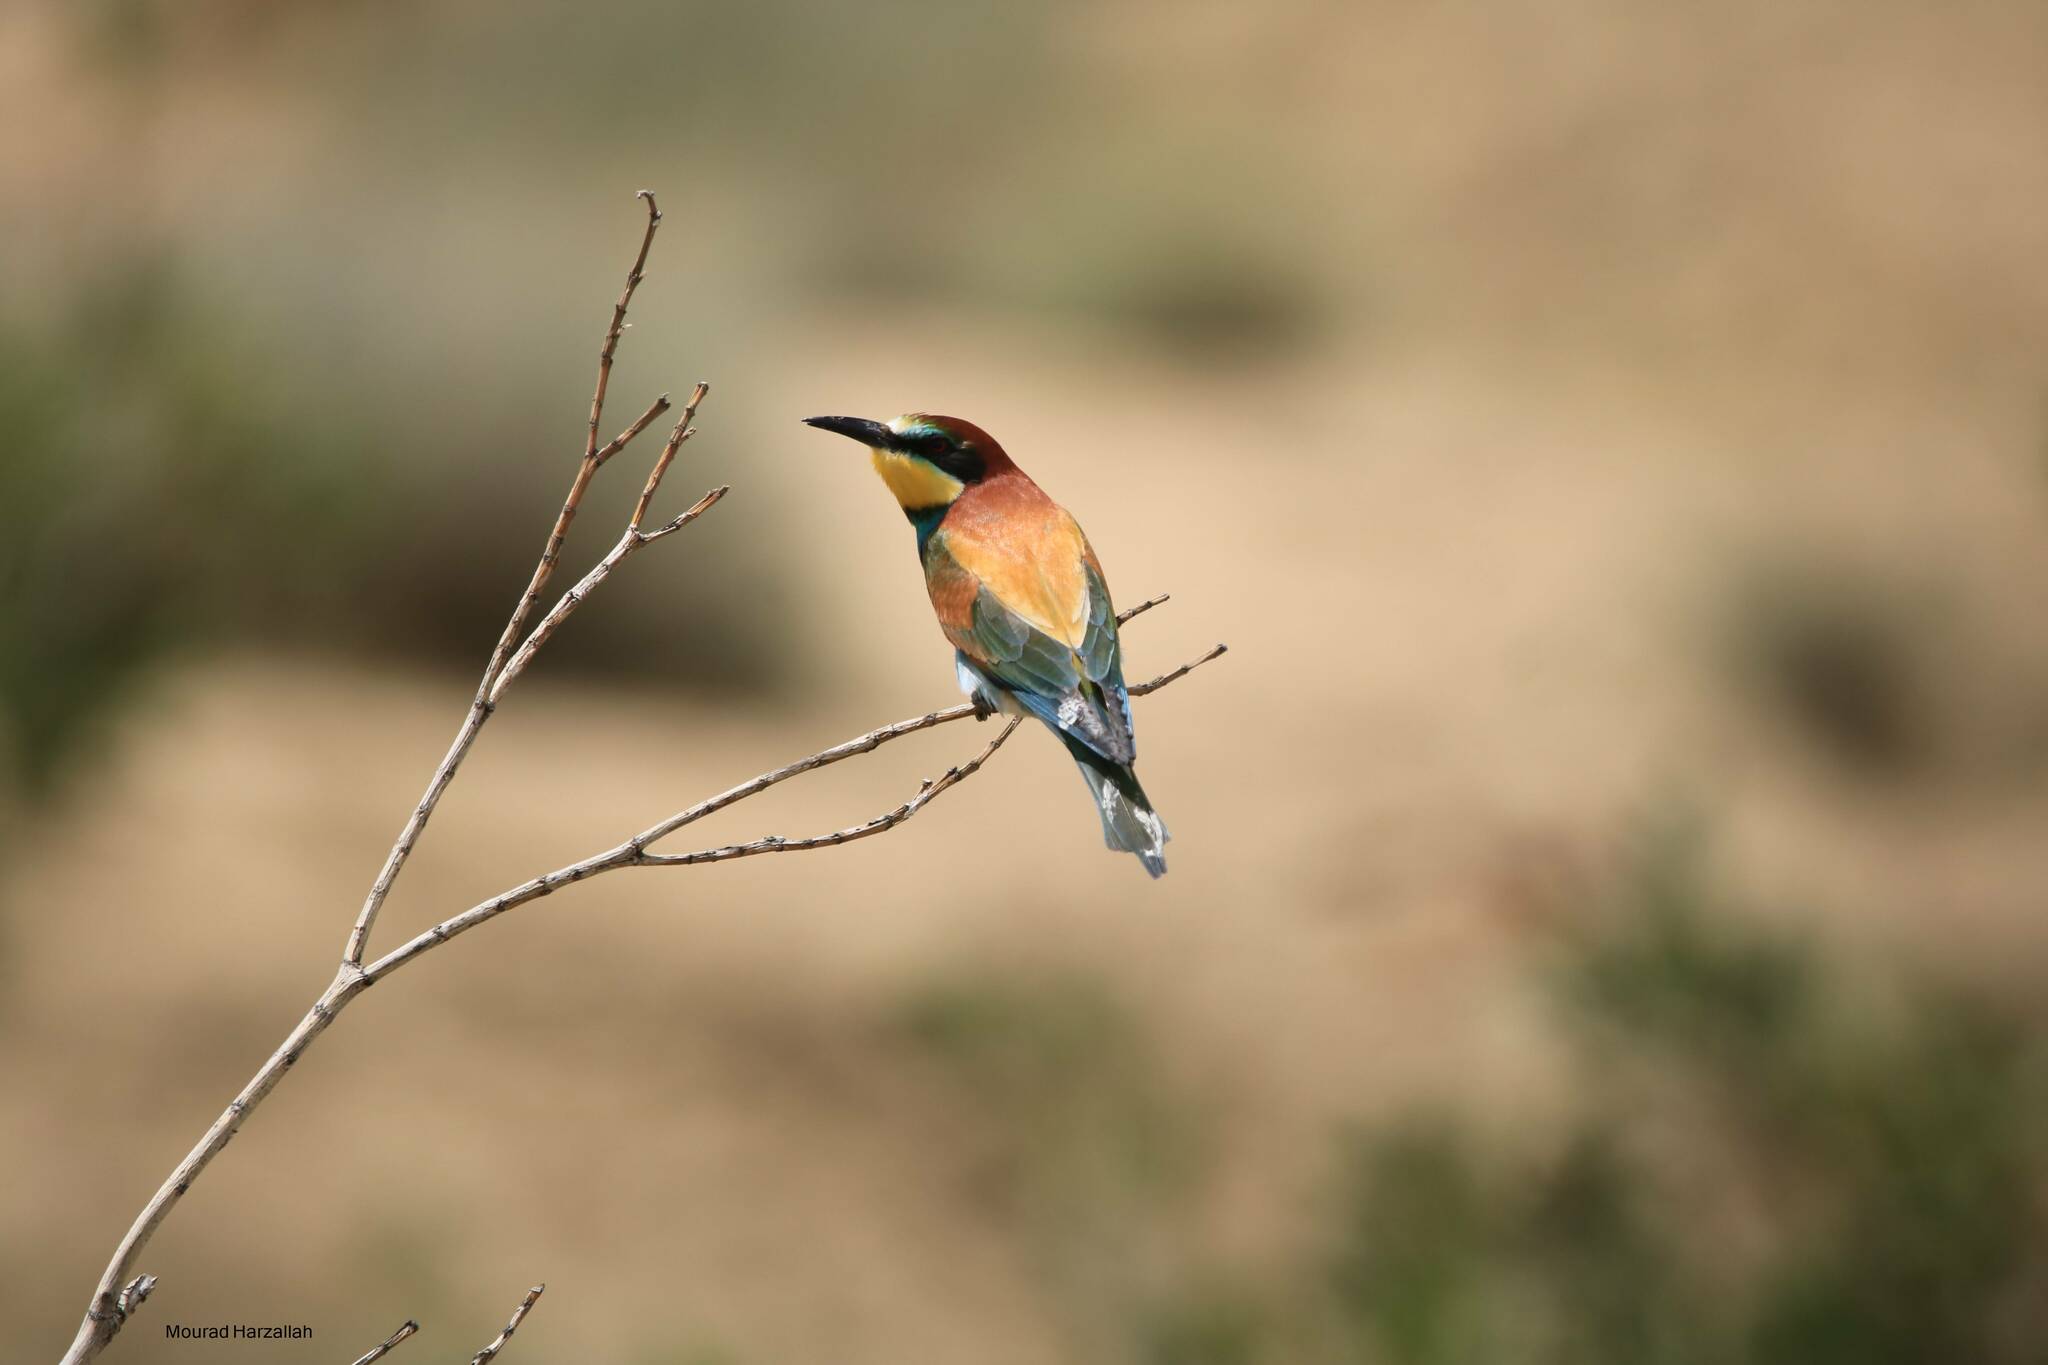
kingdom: Animalia
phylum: Chordata
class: Aves
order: Coraciiformes
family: Meropidae
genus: Merops
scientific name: Merops apiaster
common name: European bee-eater
